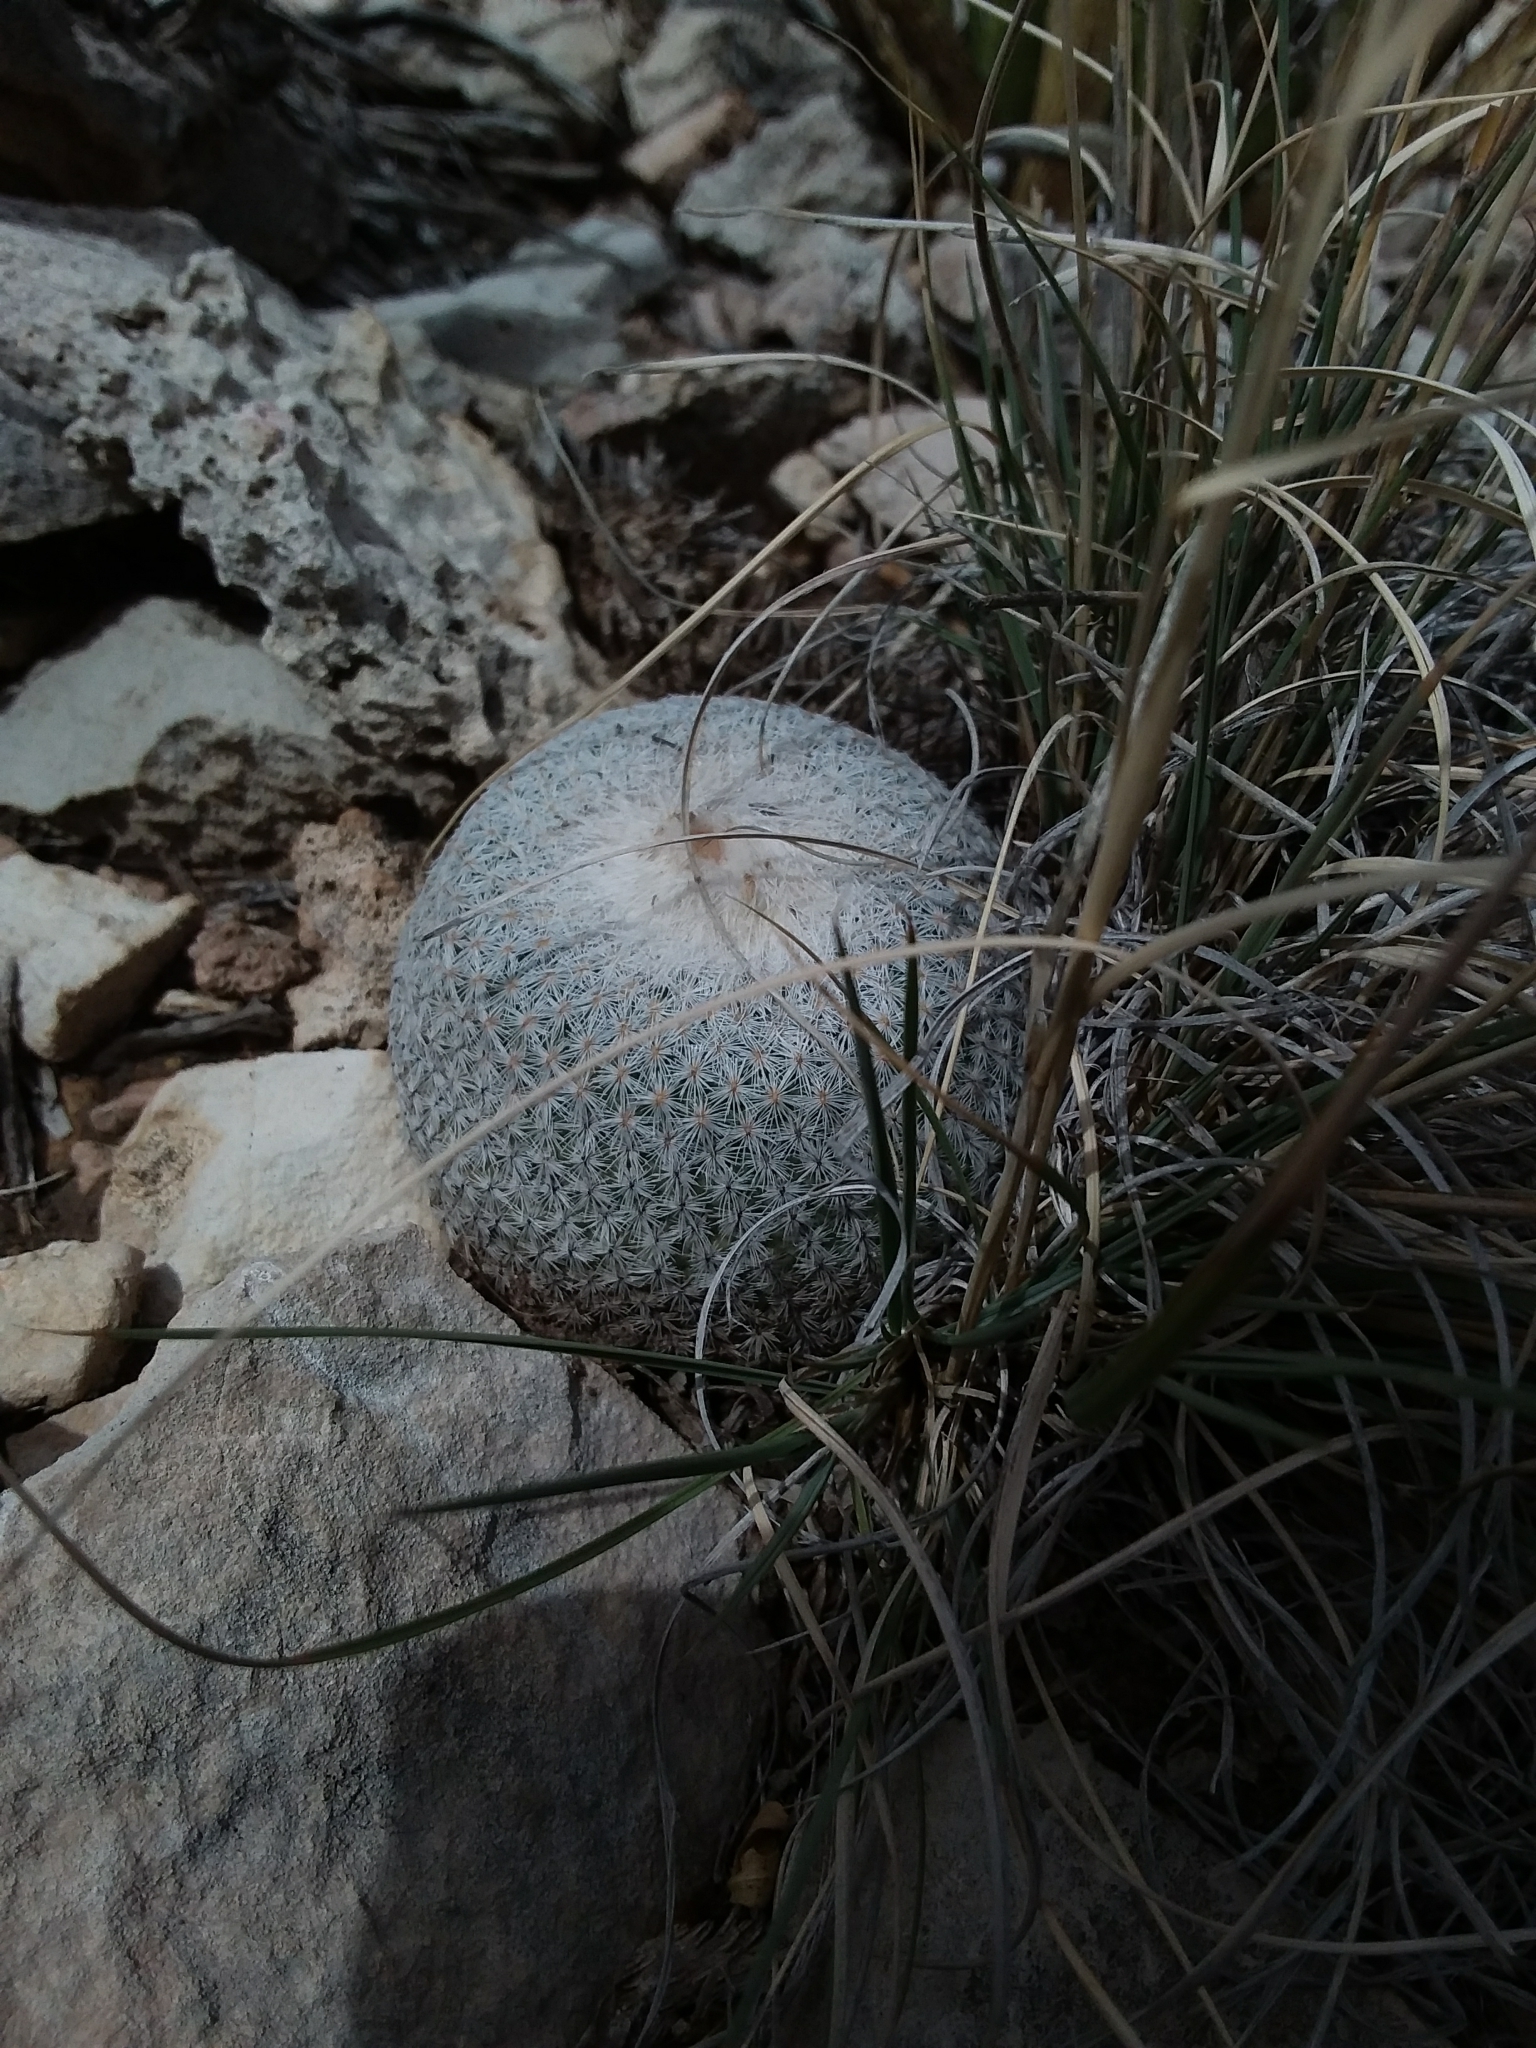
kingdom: Plantae
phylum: Tracheophyta
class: Magnoliopsida
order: Caryophyllales
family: Cactaceae
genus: Epithelantha
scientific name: Epithelantha micromeris
